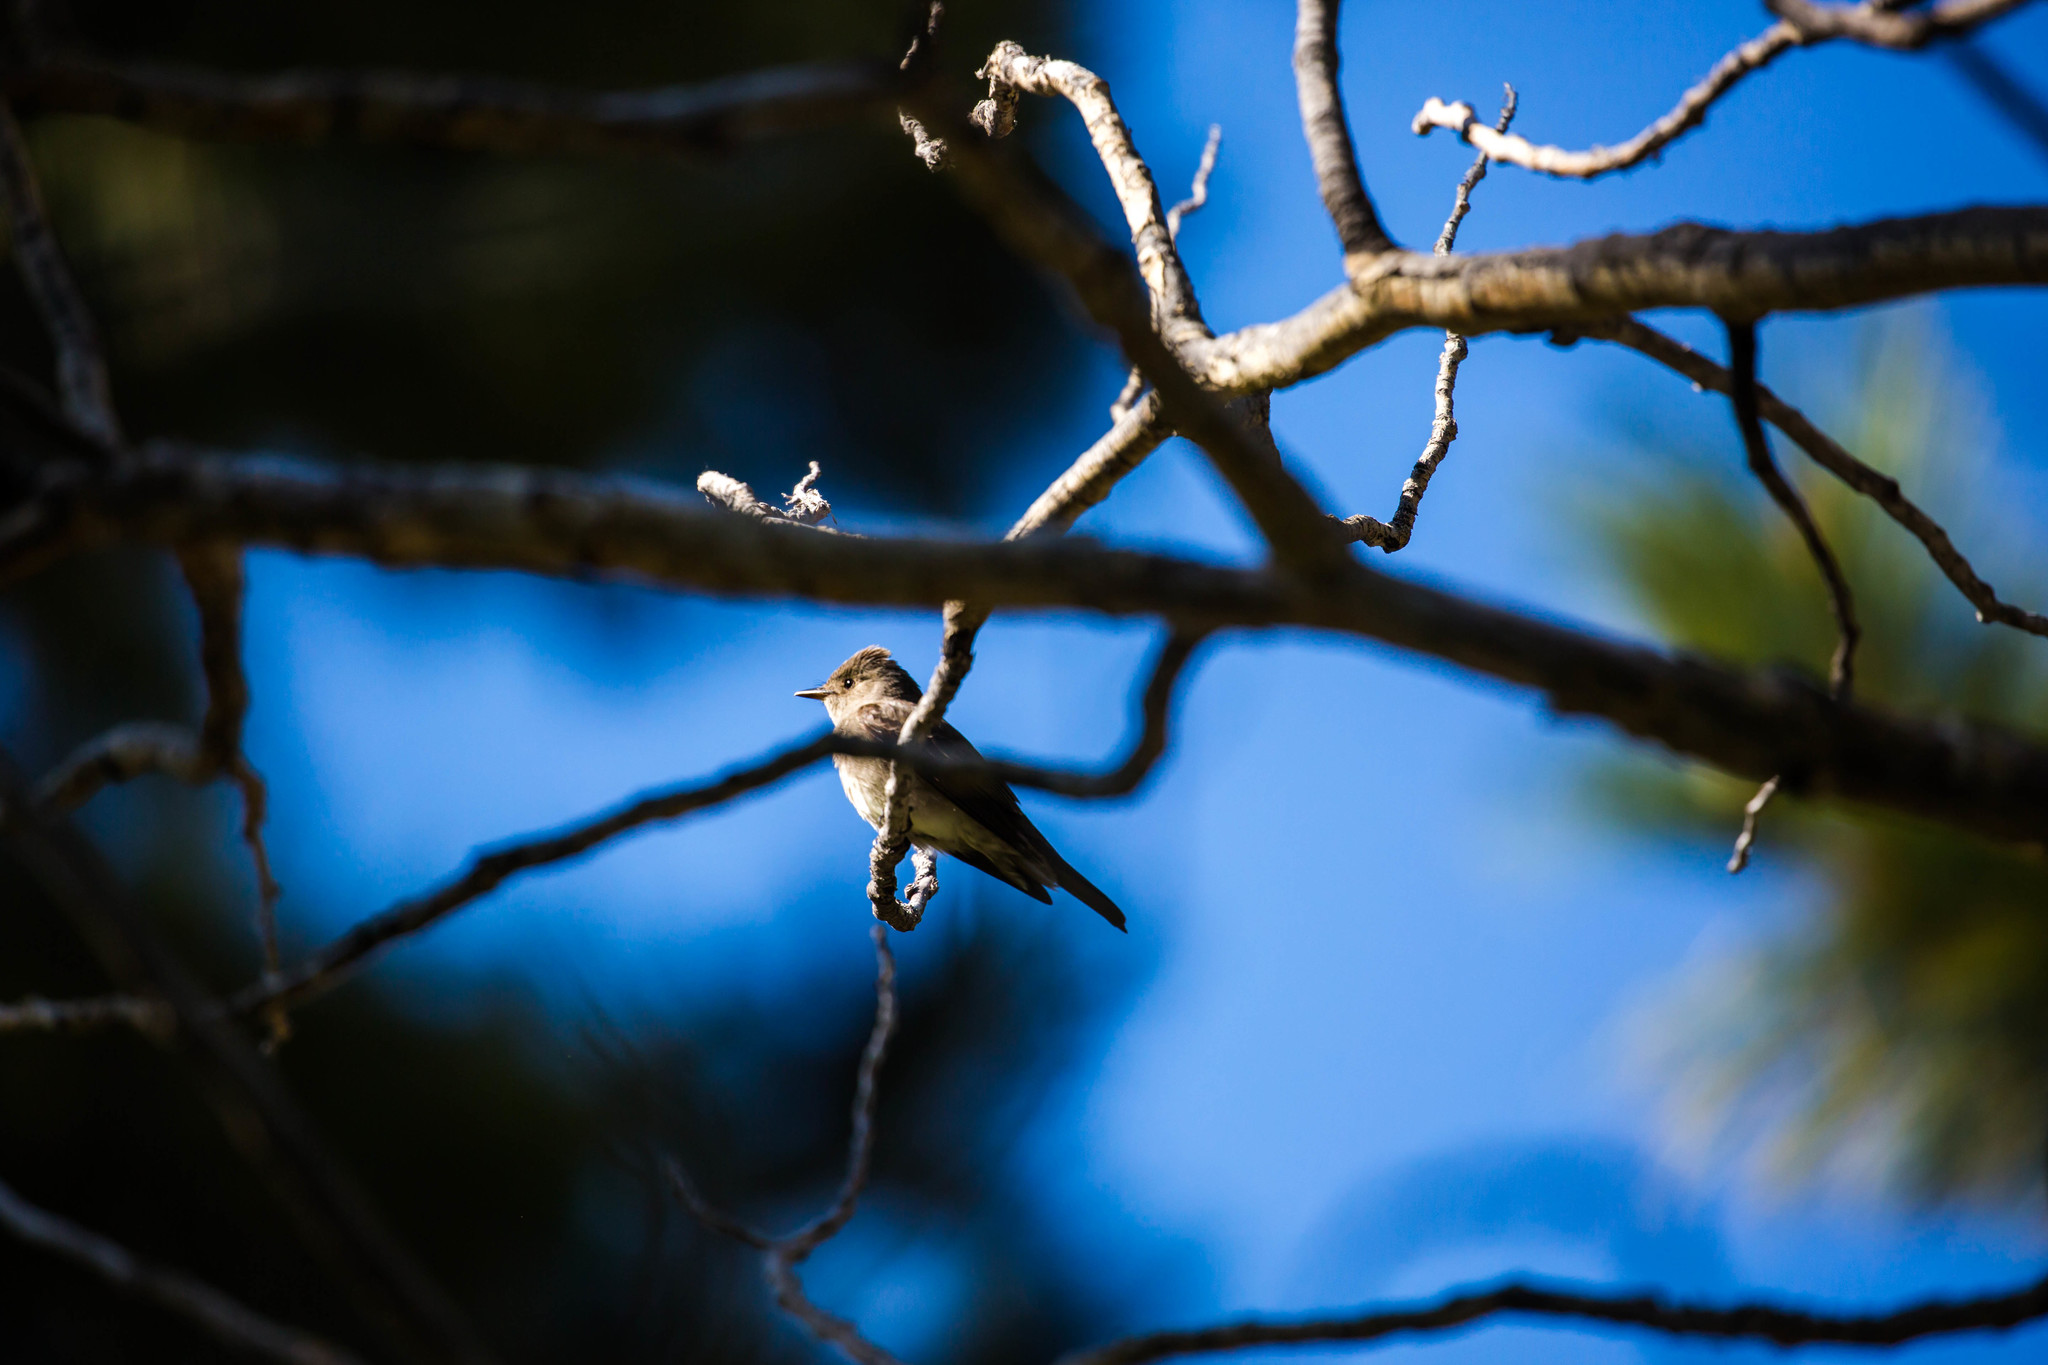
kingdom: Animalia
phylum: Chordata
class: Aves
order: Passeriformes
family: Tyrannidae
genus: Contopus
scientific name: Contopus sordidulus
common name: Western wood-pewee
